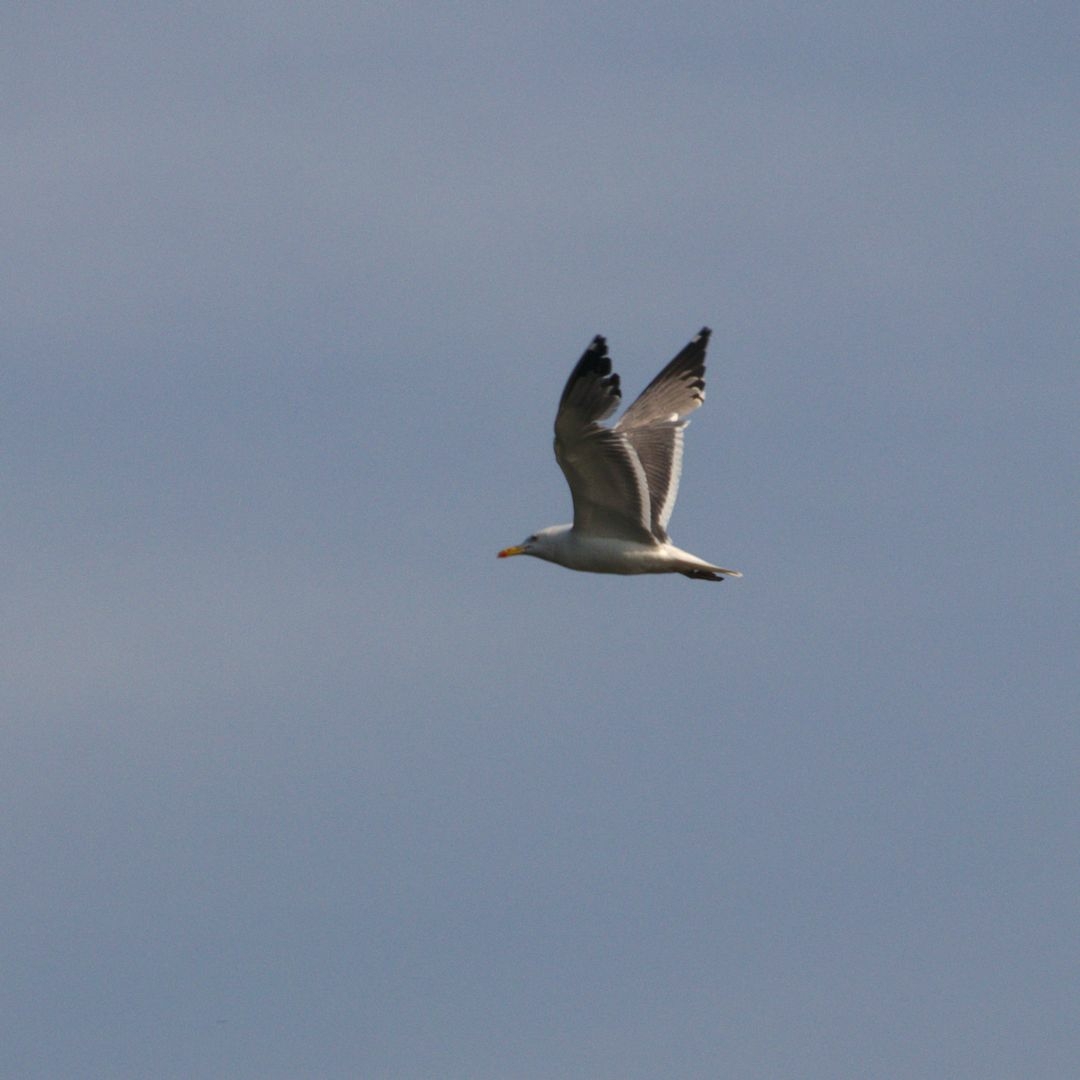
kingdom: Animalia
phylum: Chordata
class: Aves
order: Charadriiformes
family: Laridae
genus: Larus
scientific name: Larus fuscus
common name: Lesser black-backed gull
